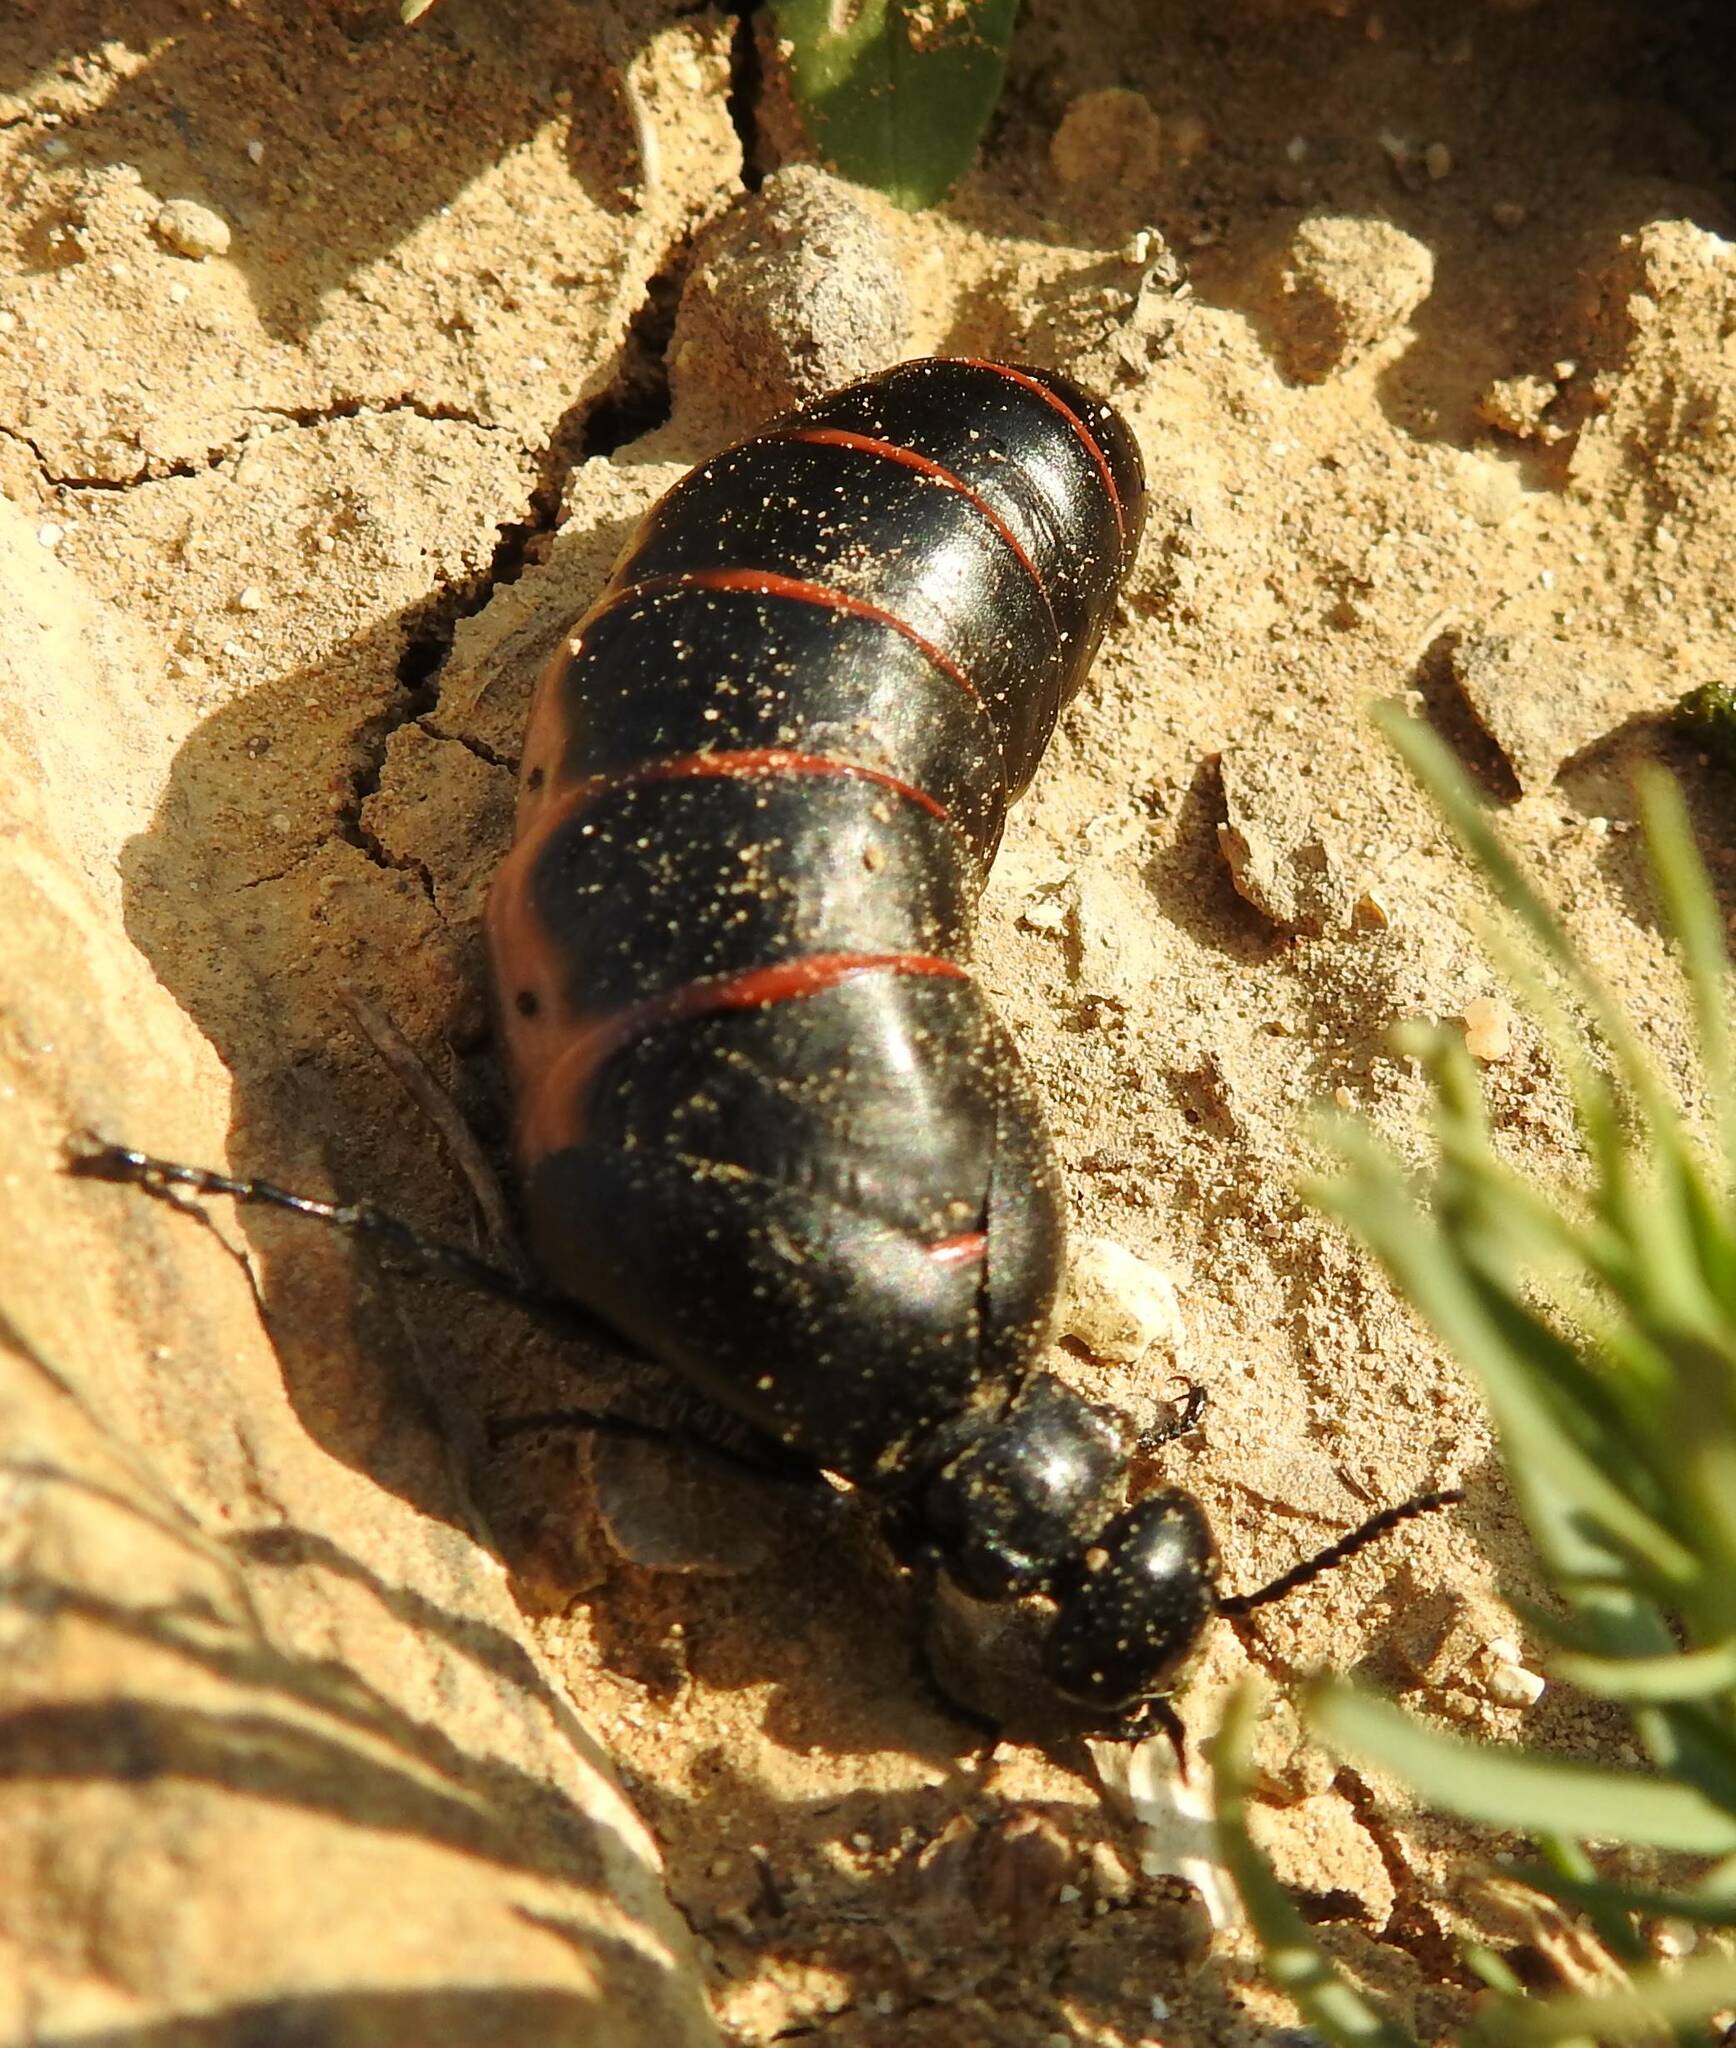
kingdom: Animalia
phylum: Arthropoda
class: Insecta
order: Coleoptera
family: Meloidae
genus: Berberomeloe
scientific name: Berberomeloe majalis
